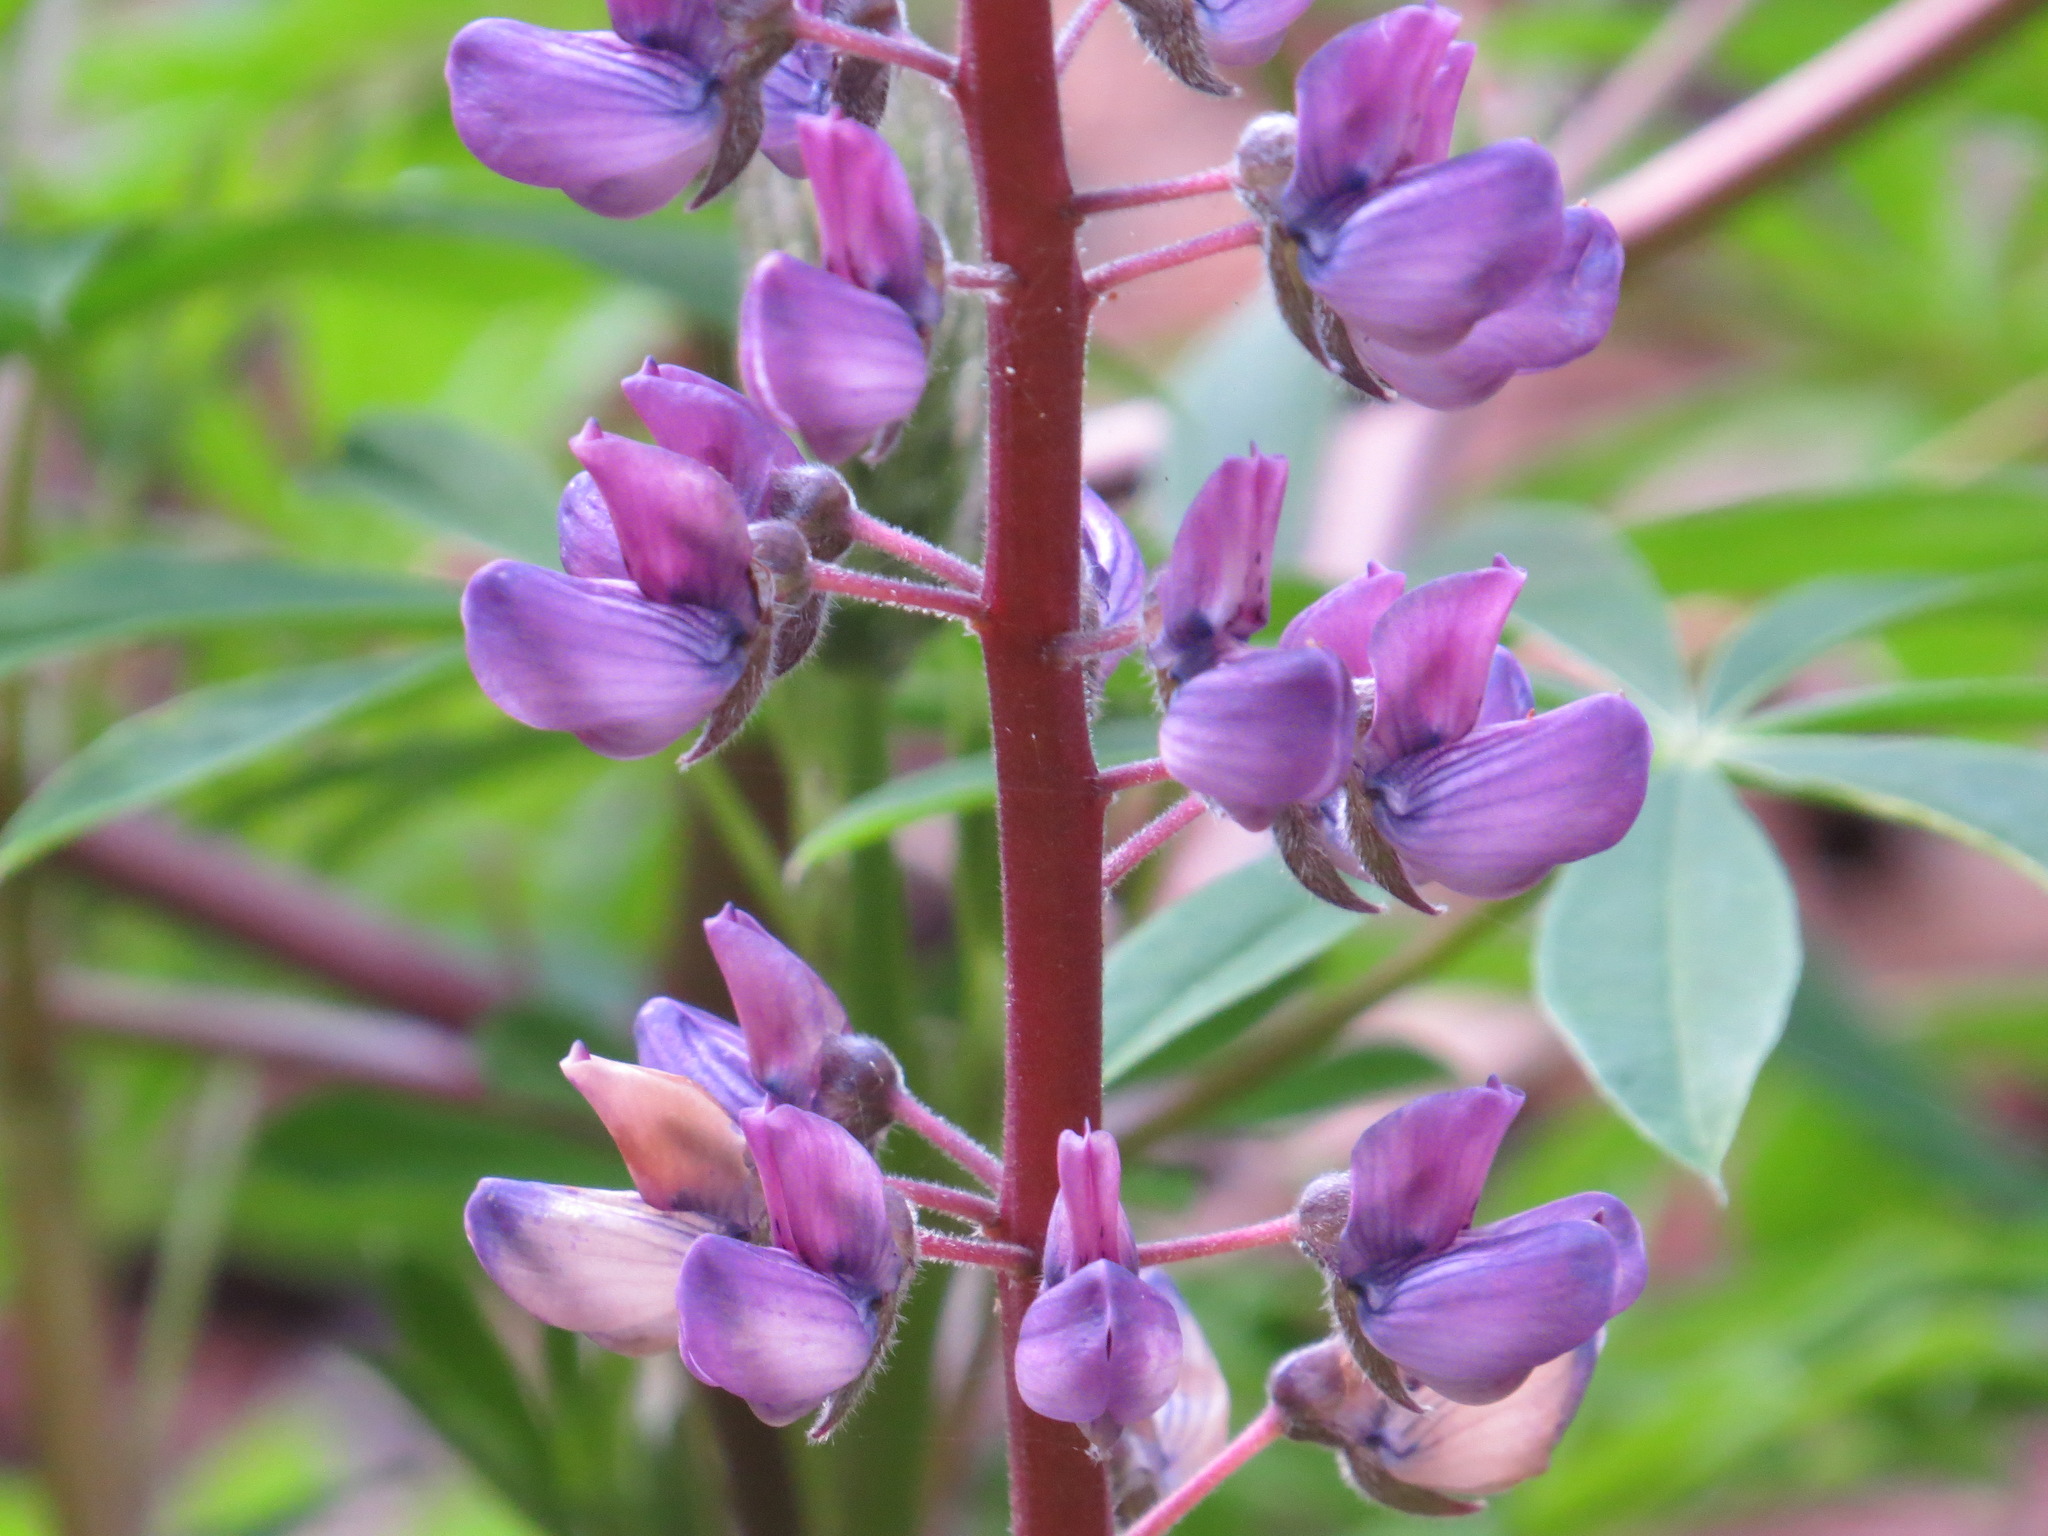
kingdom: Plantae
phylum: Tracheophyta
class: Magnoliopsida
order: Fabales
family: Fabaceae
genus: Lupinus
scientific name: Lupinus latifolius
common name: Broad-leaved lupine
